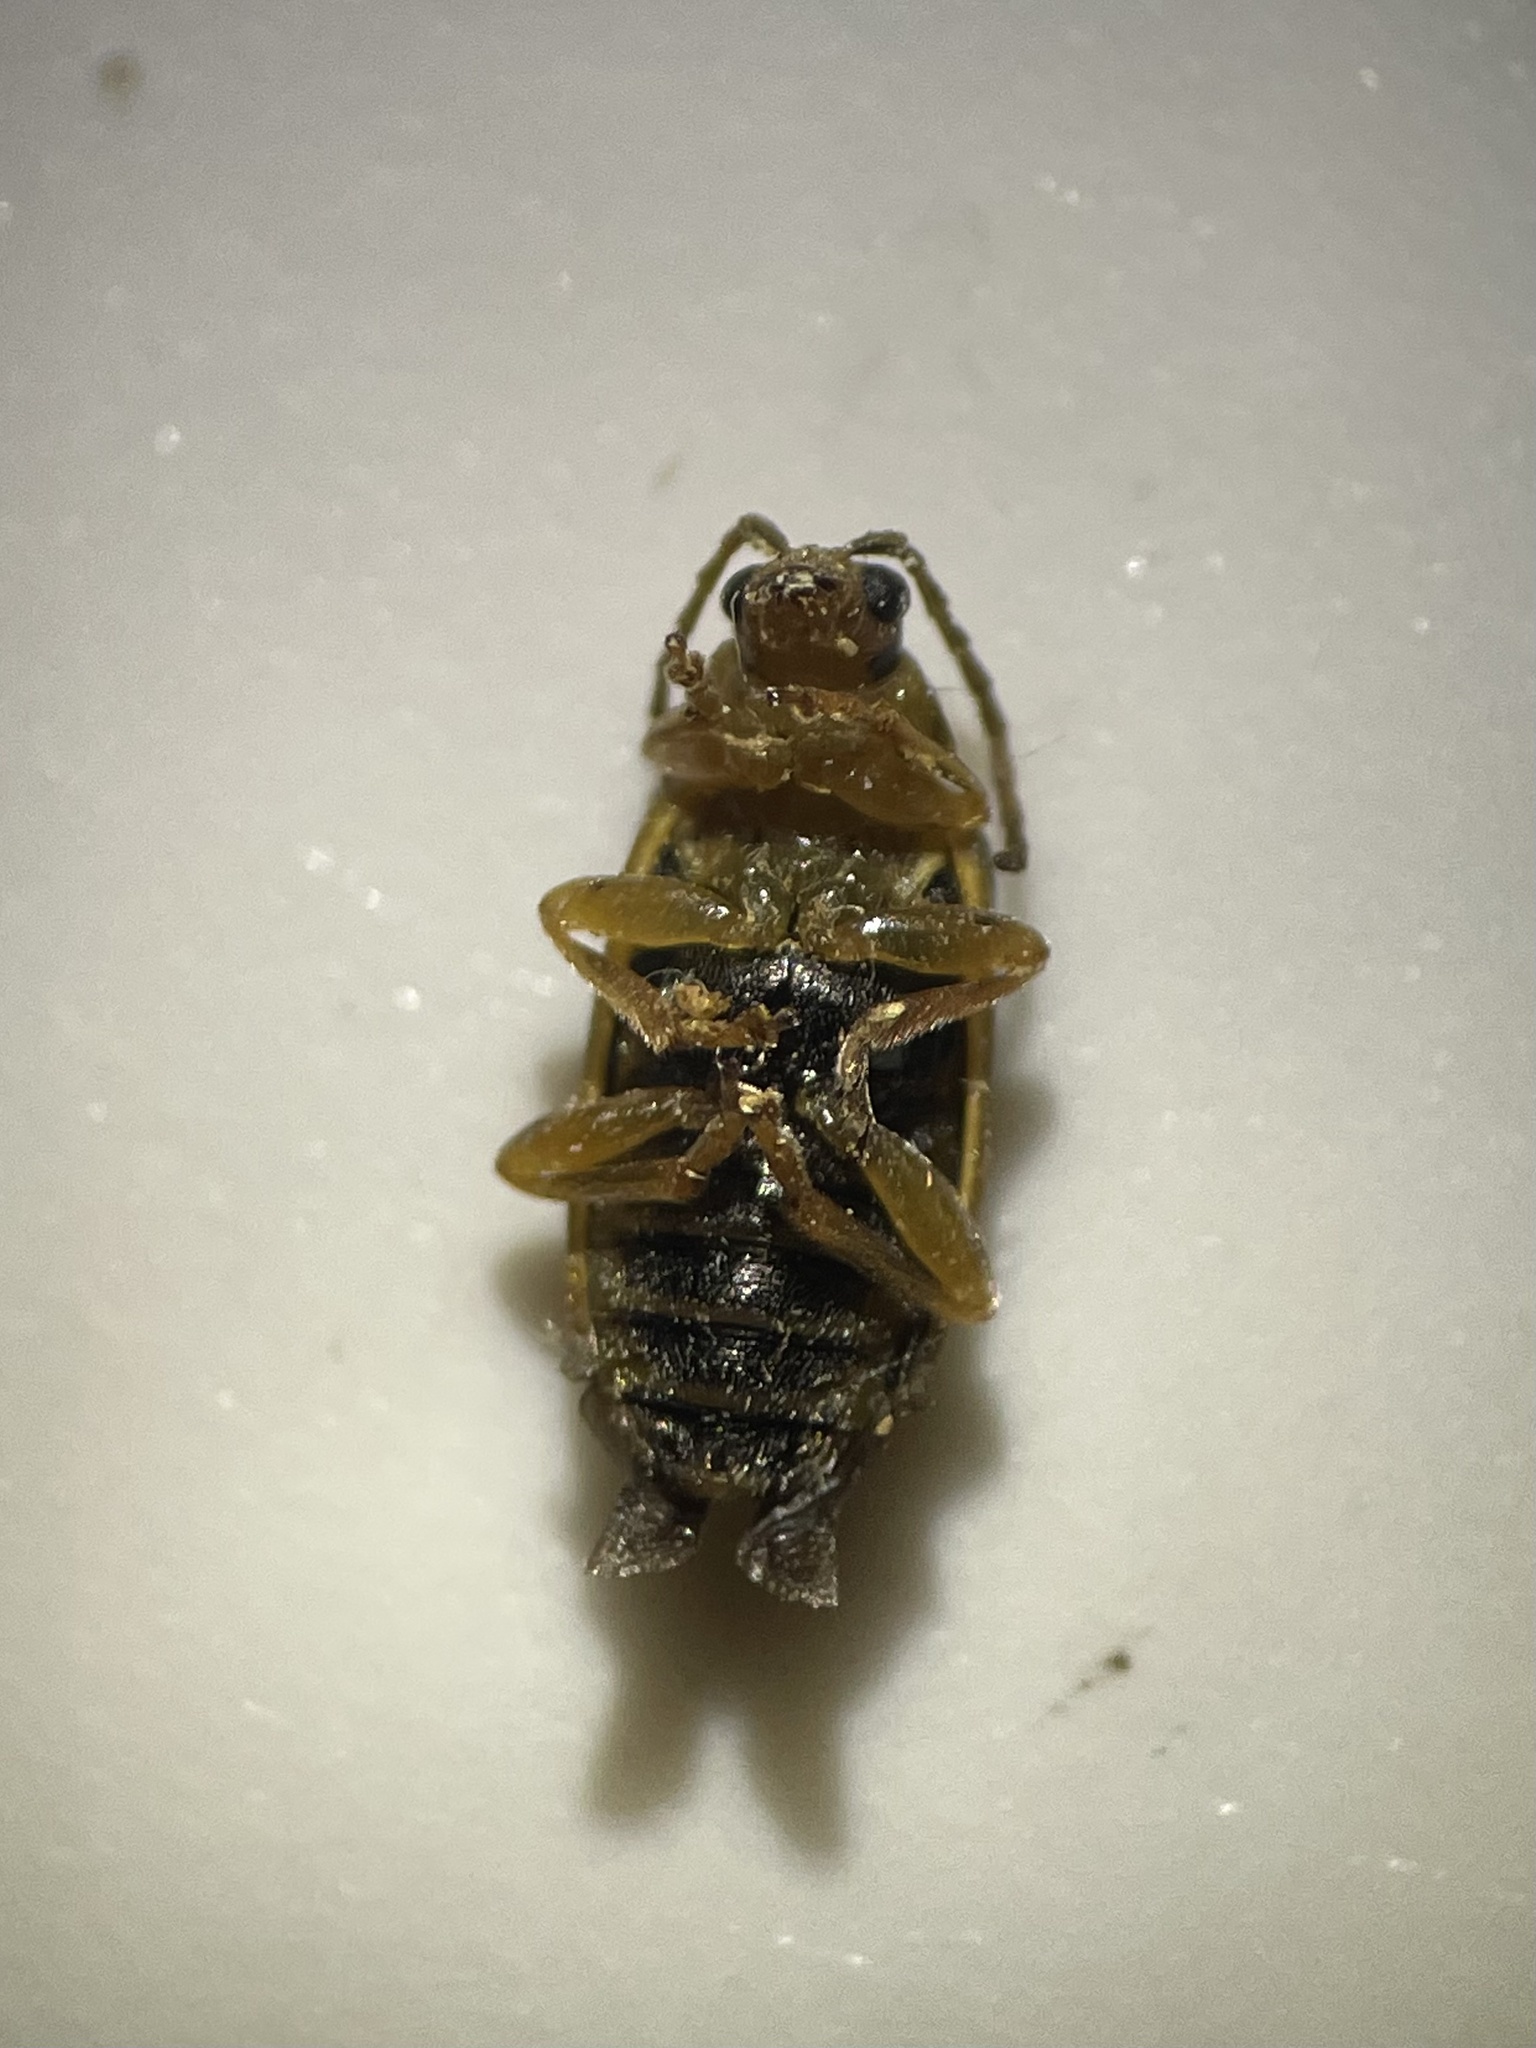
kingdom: Animalia
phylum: Arthropoda
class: Insecta
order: Coleoptera
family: Chrysomelidae
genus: Xanthogaleruca
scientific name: Xanthogaleruca luteola
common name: Elm leaf beetle
